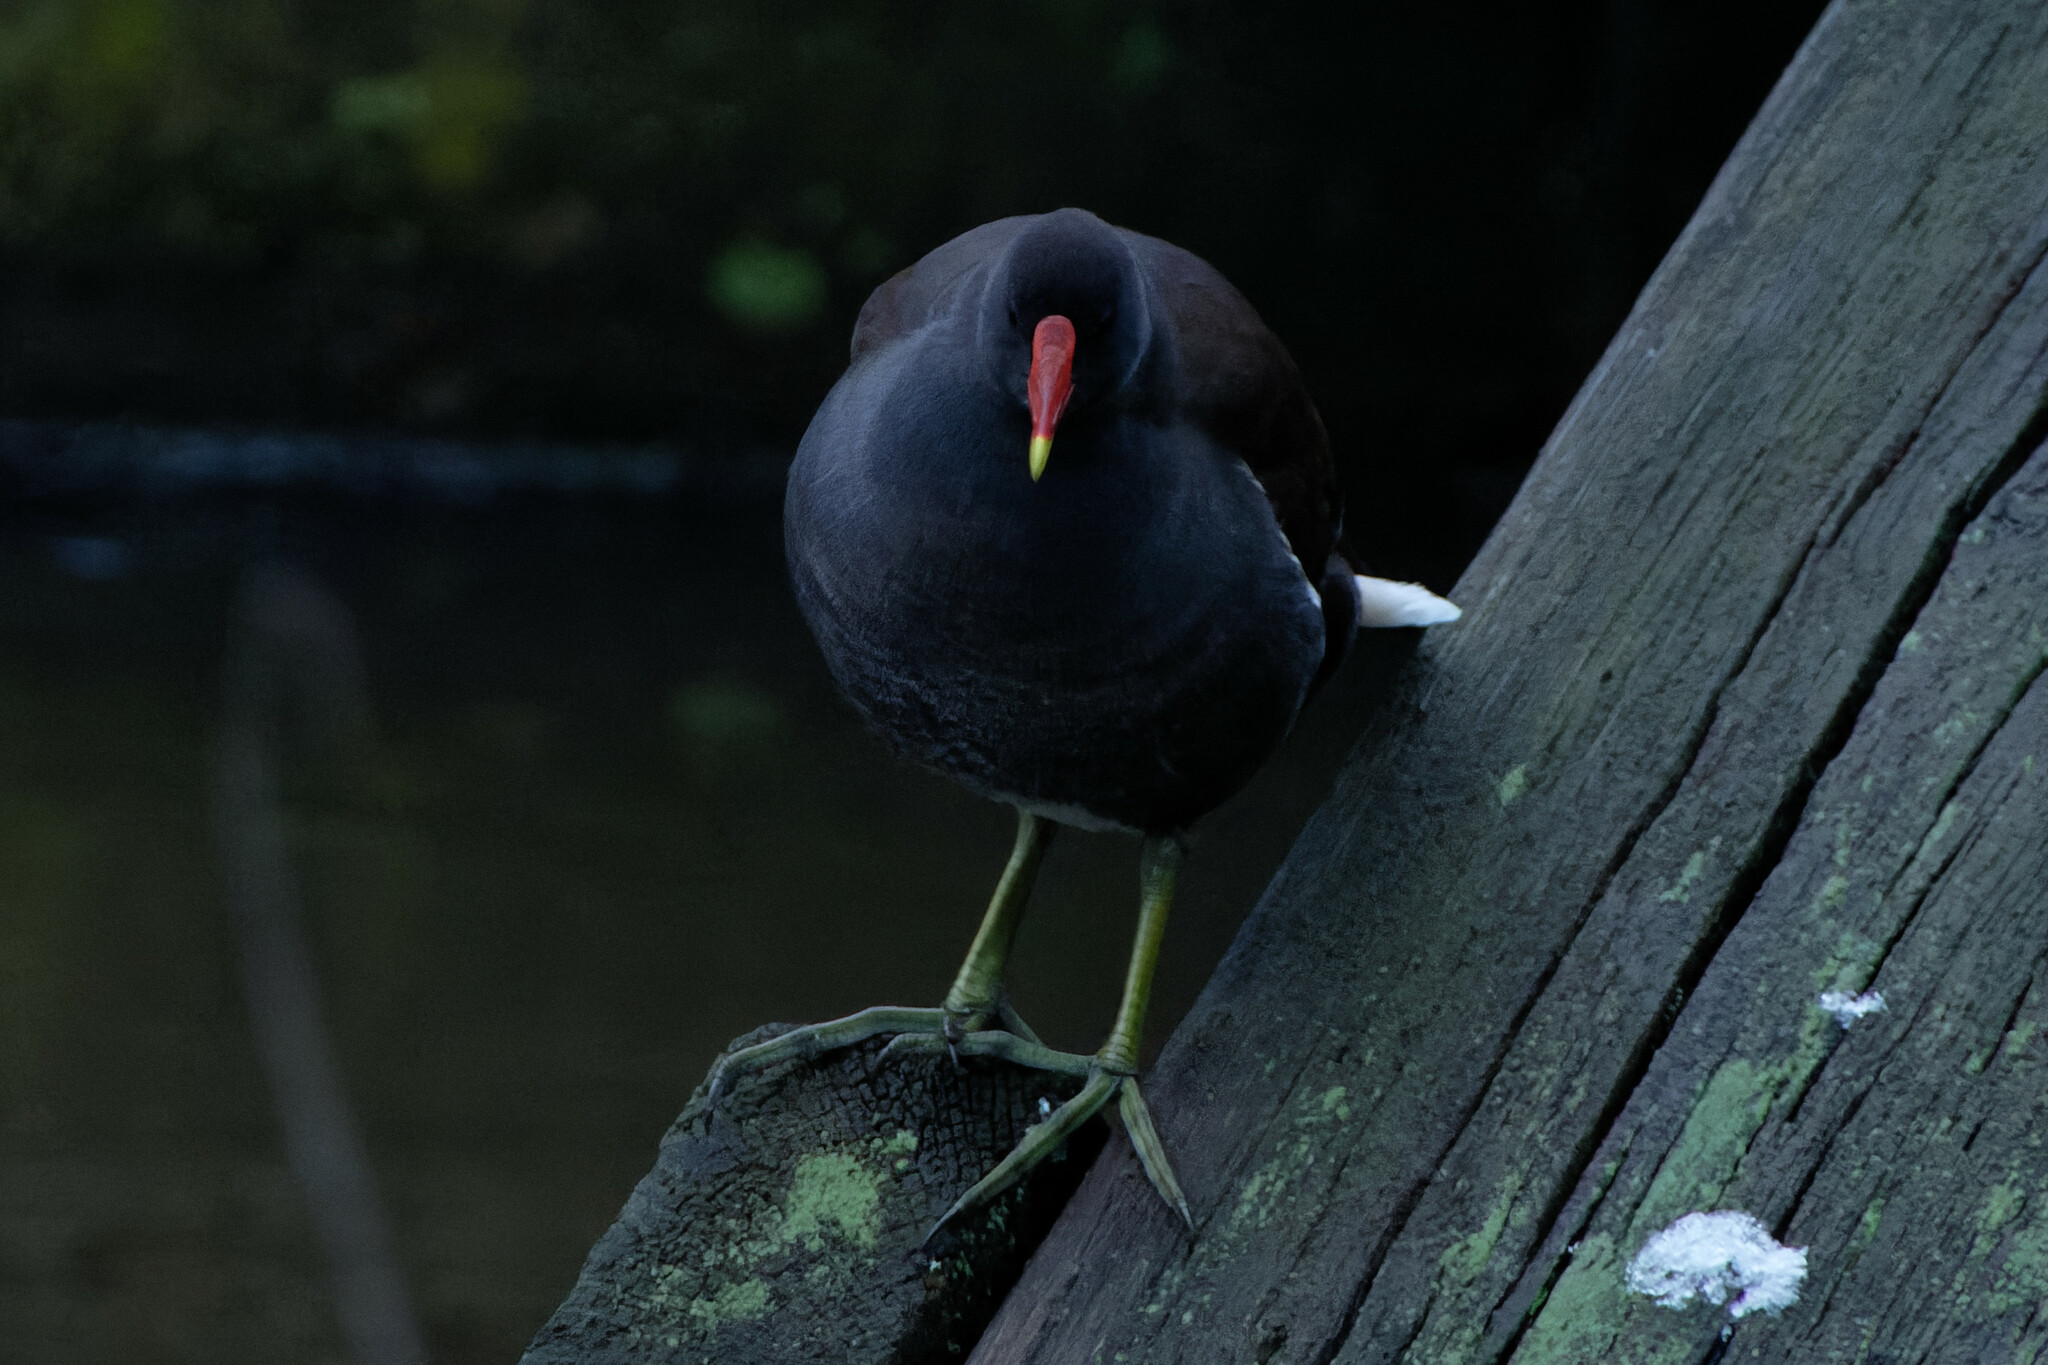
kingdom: Animalia
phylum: Chordata
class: Aves
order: Gruiformes
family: Rallidae
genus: Gallinula
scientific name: Gallinula chloropus
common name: Common moorhen
